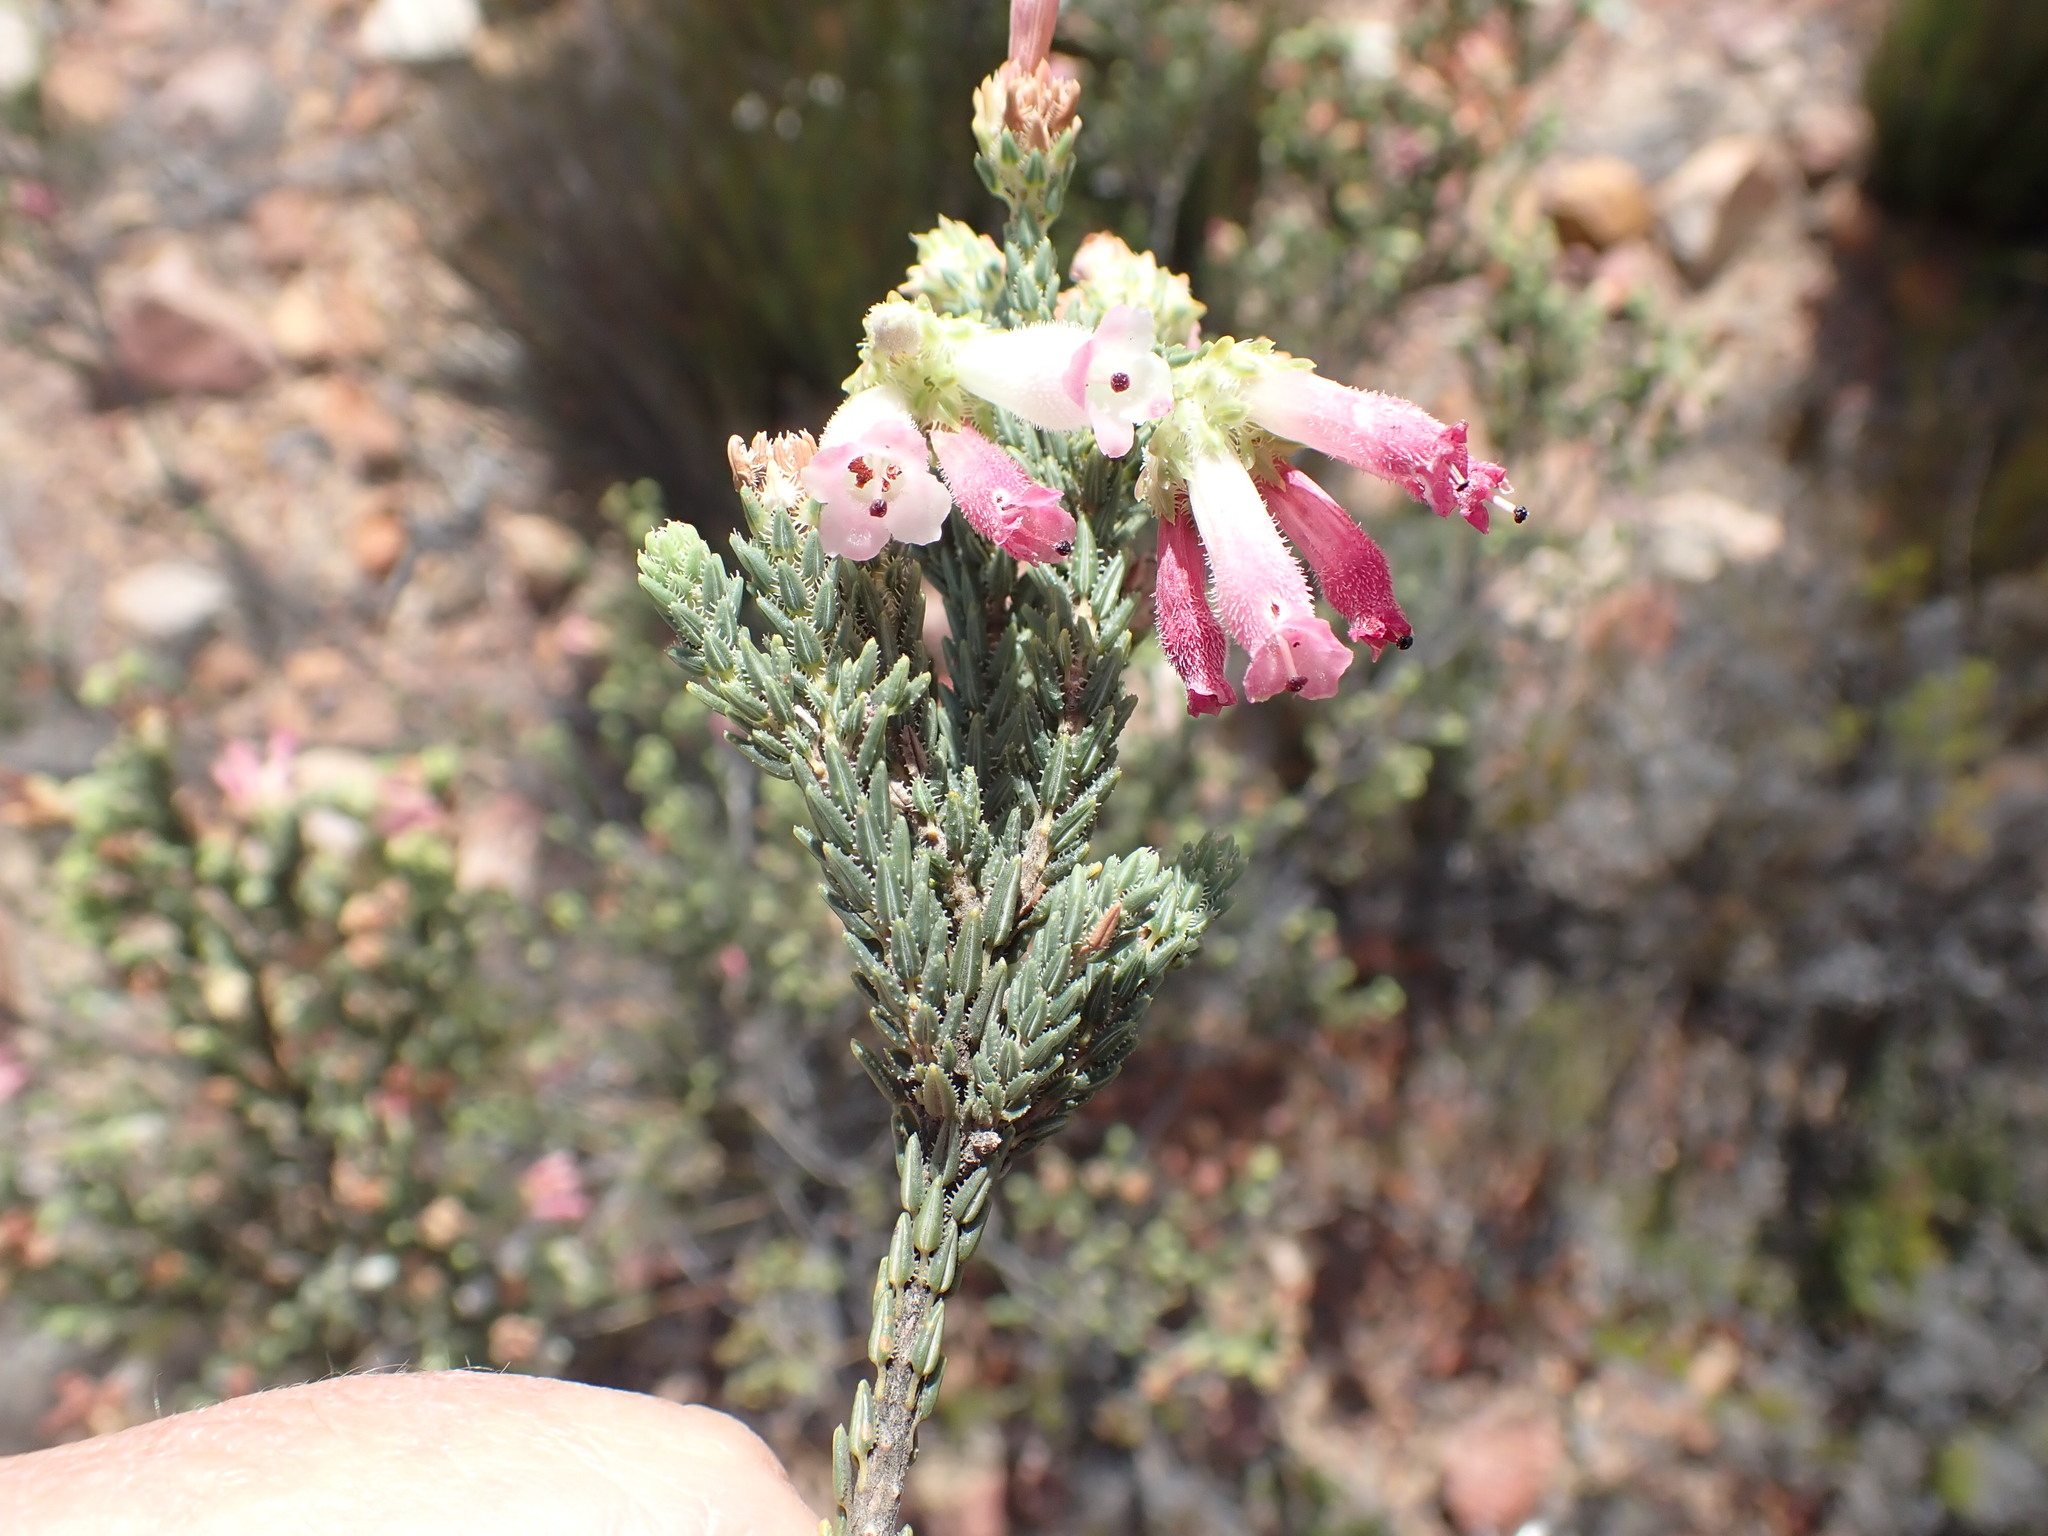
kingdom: Plantae
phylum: Tracheophyta
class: Magnoliopsida
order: Ericales
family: Ericaceae
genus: Erica
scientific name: Erica pectinifolia
